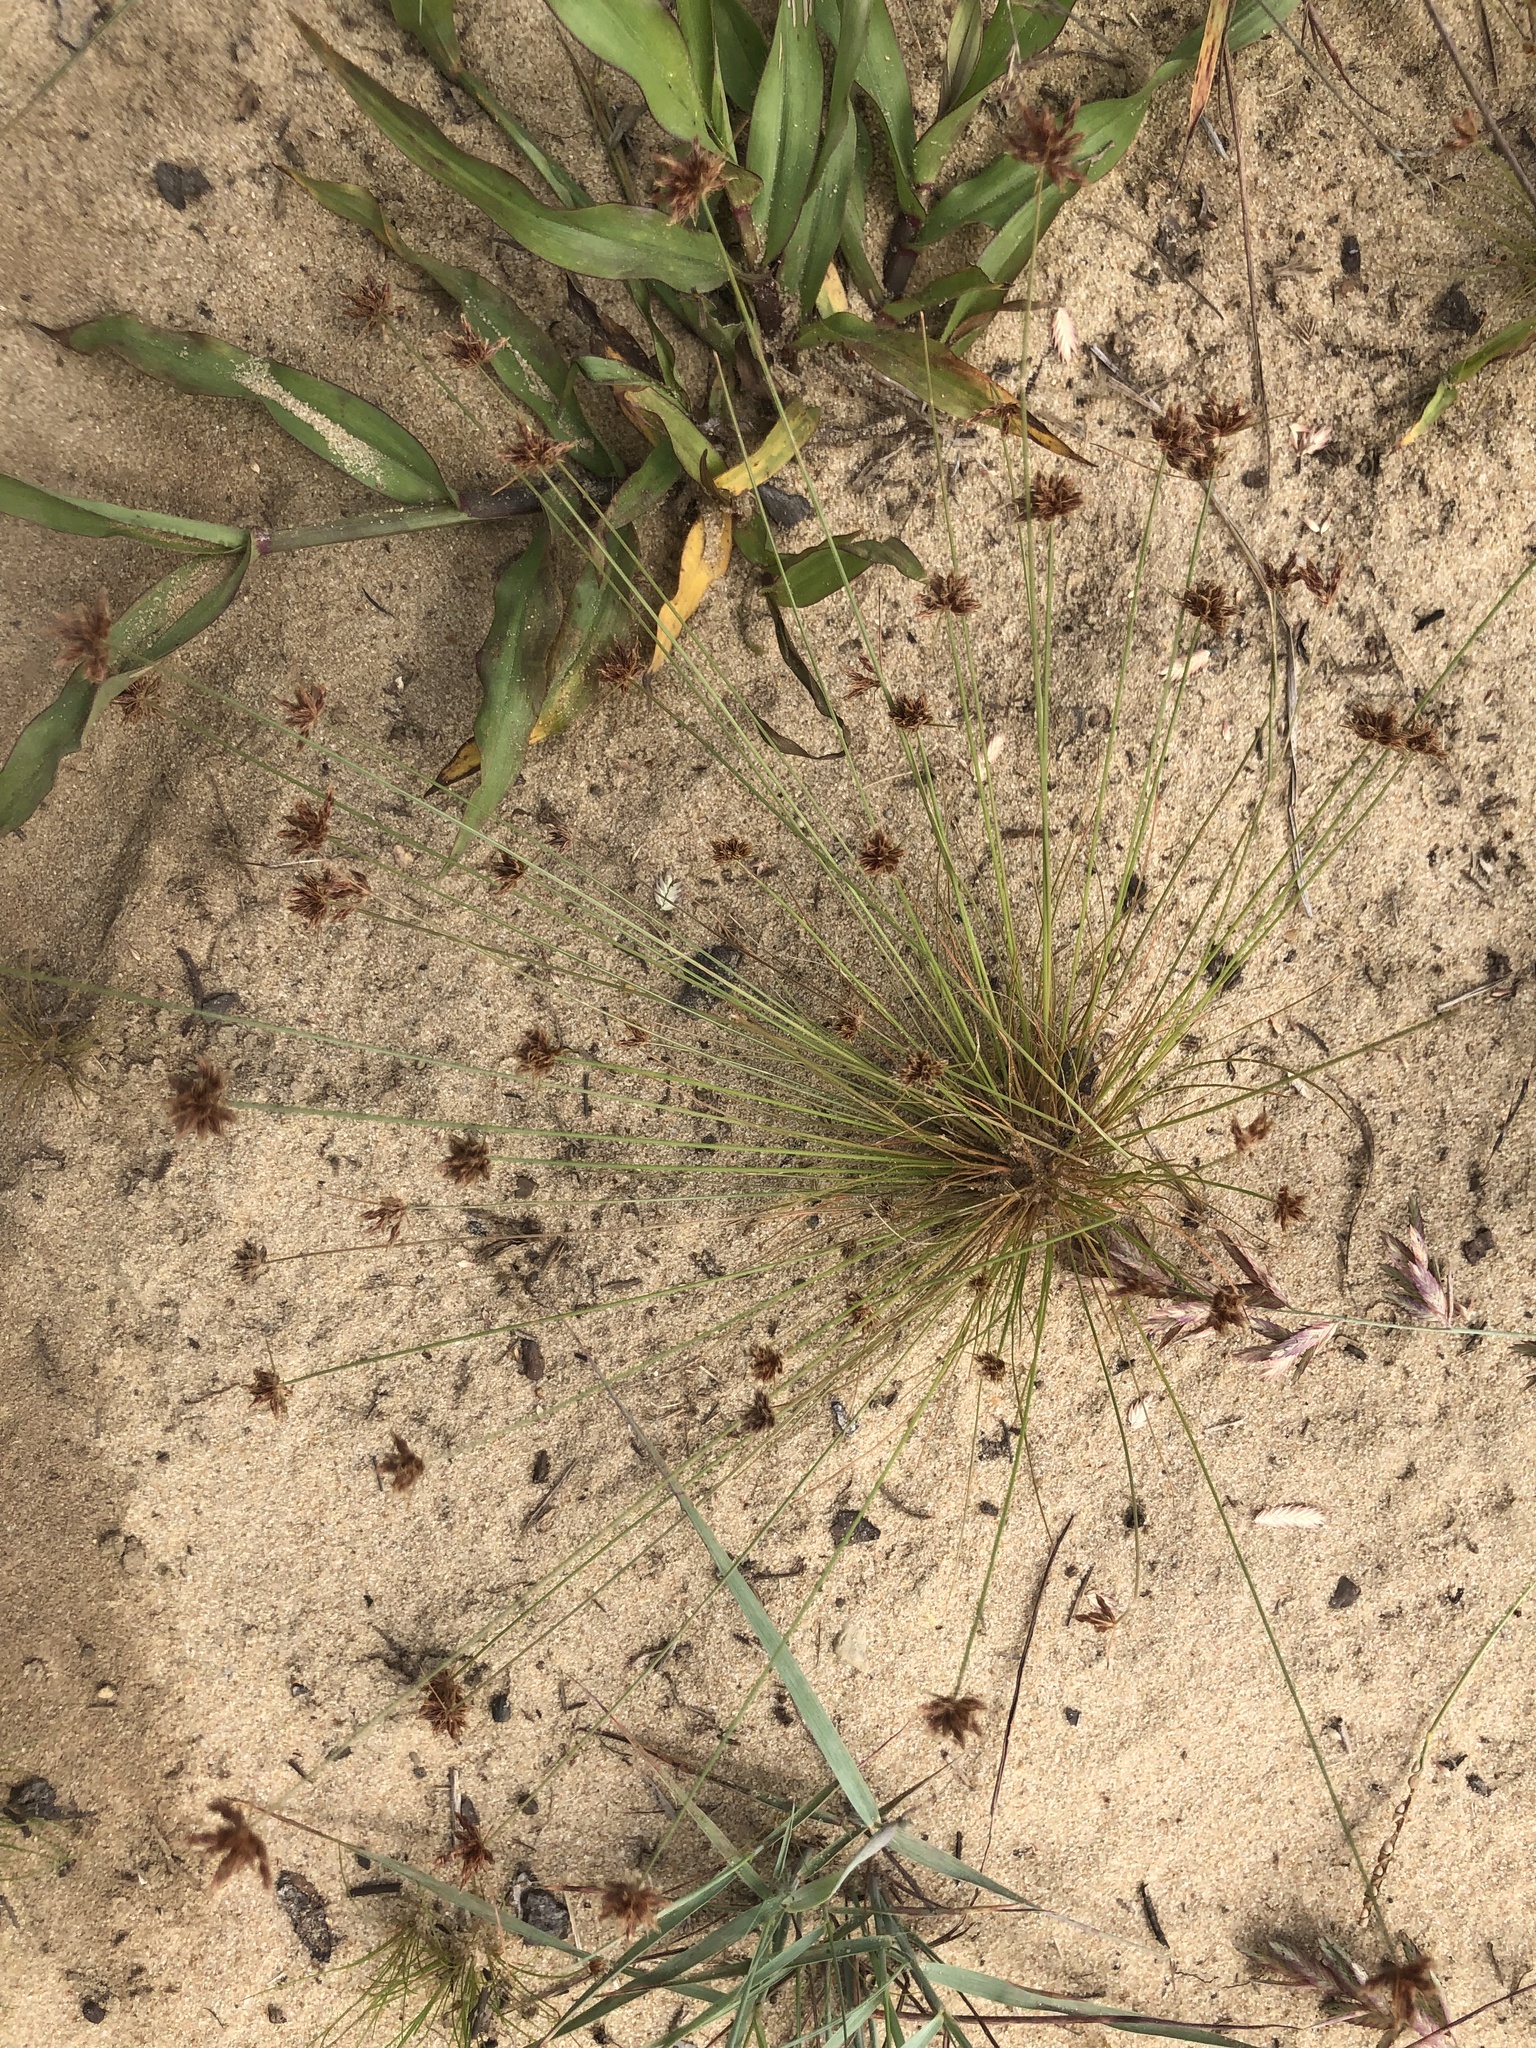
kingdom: Plantae
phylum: Tracheophyta
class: Liliopsida
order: Poales
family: Cyperaceae
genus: Bulbostylis
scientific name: Bulbostylis barbata
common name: Watergrass
